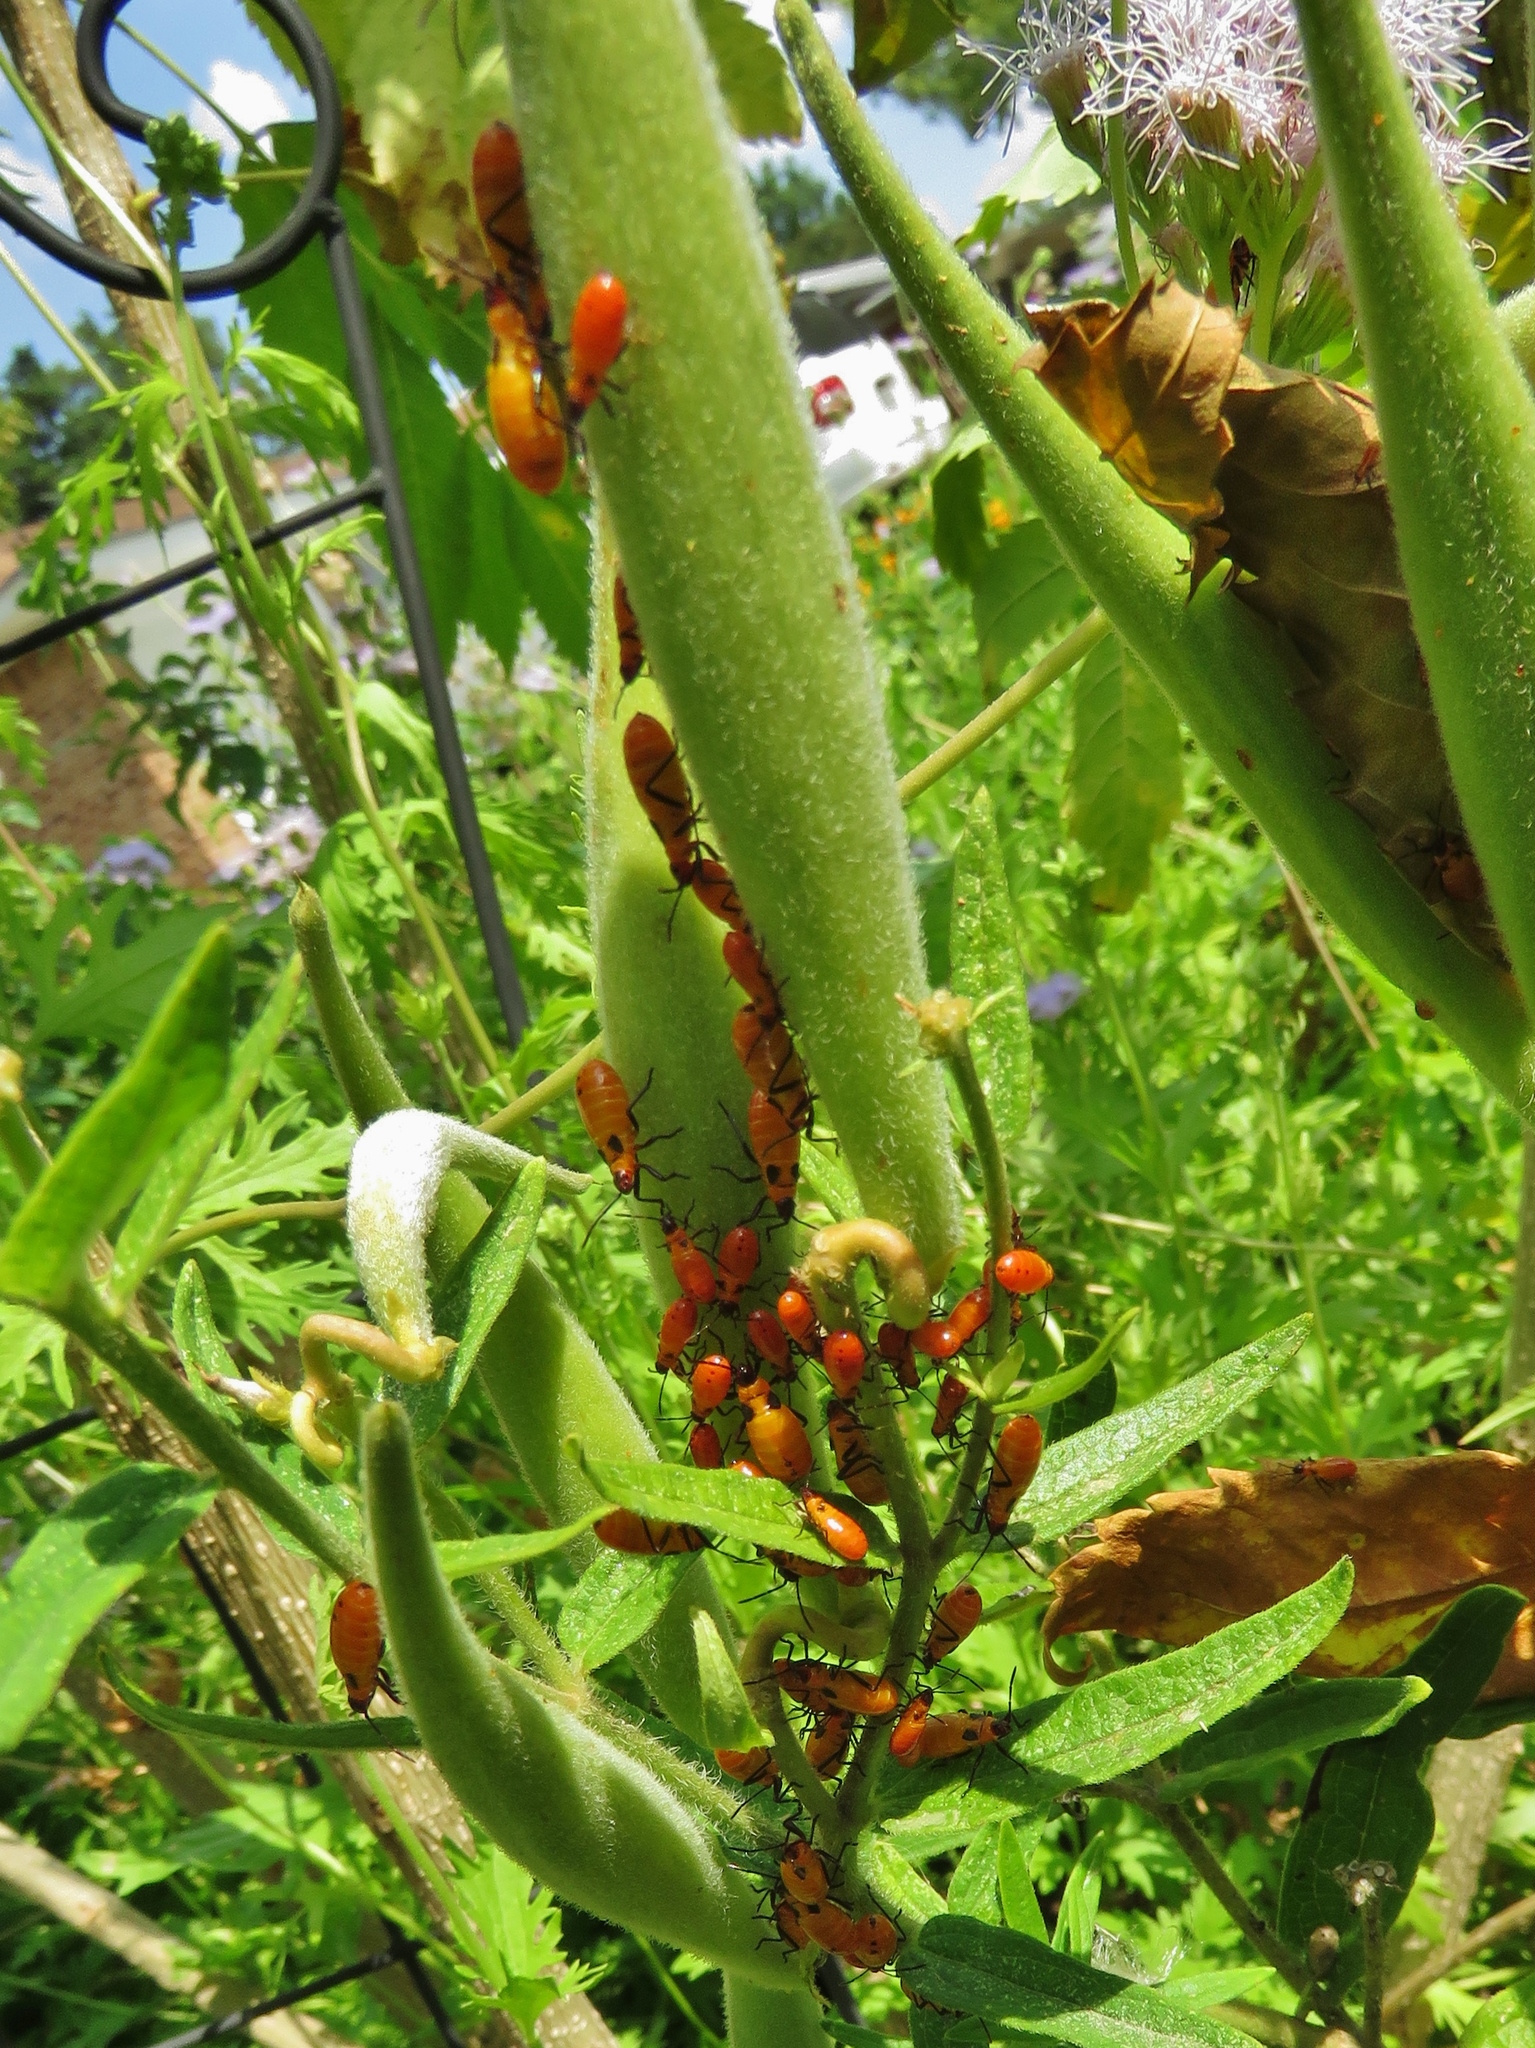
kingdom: Animalia
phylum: Arthropoda
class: Insecta
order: Hemiptera
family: Lygaeidae
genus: Oncopeltus
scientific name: Oncopeltus fasciatus
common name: Large milkweed bug
